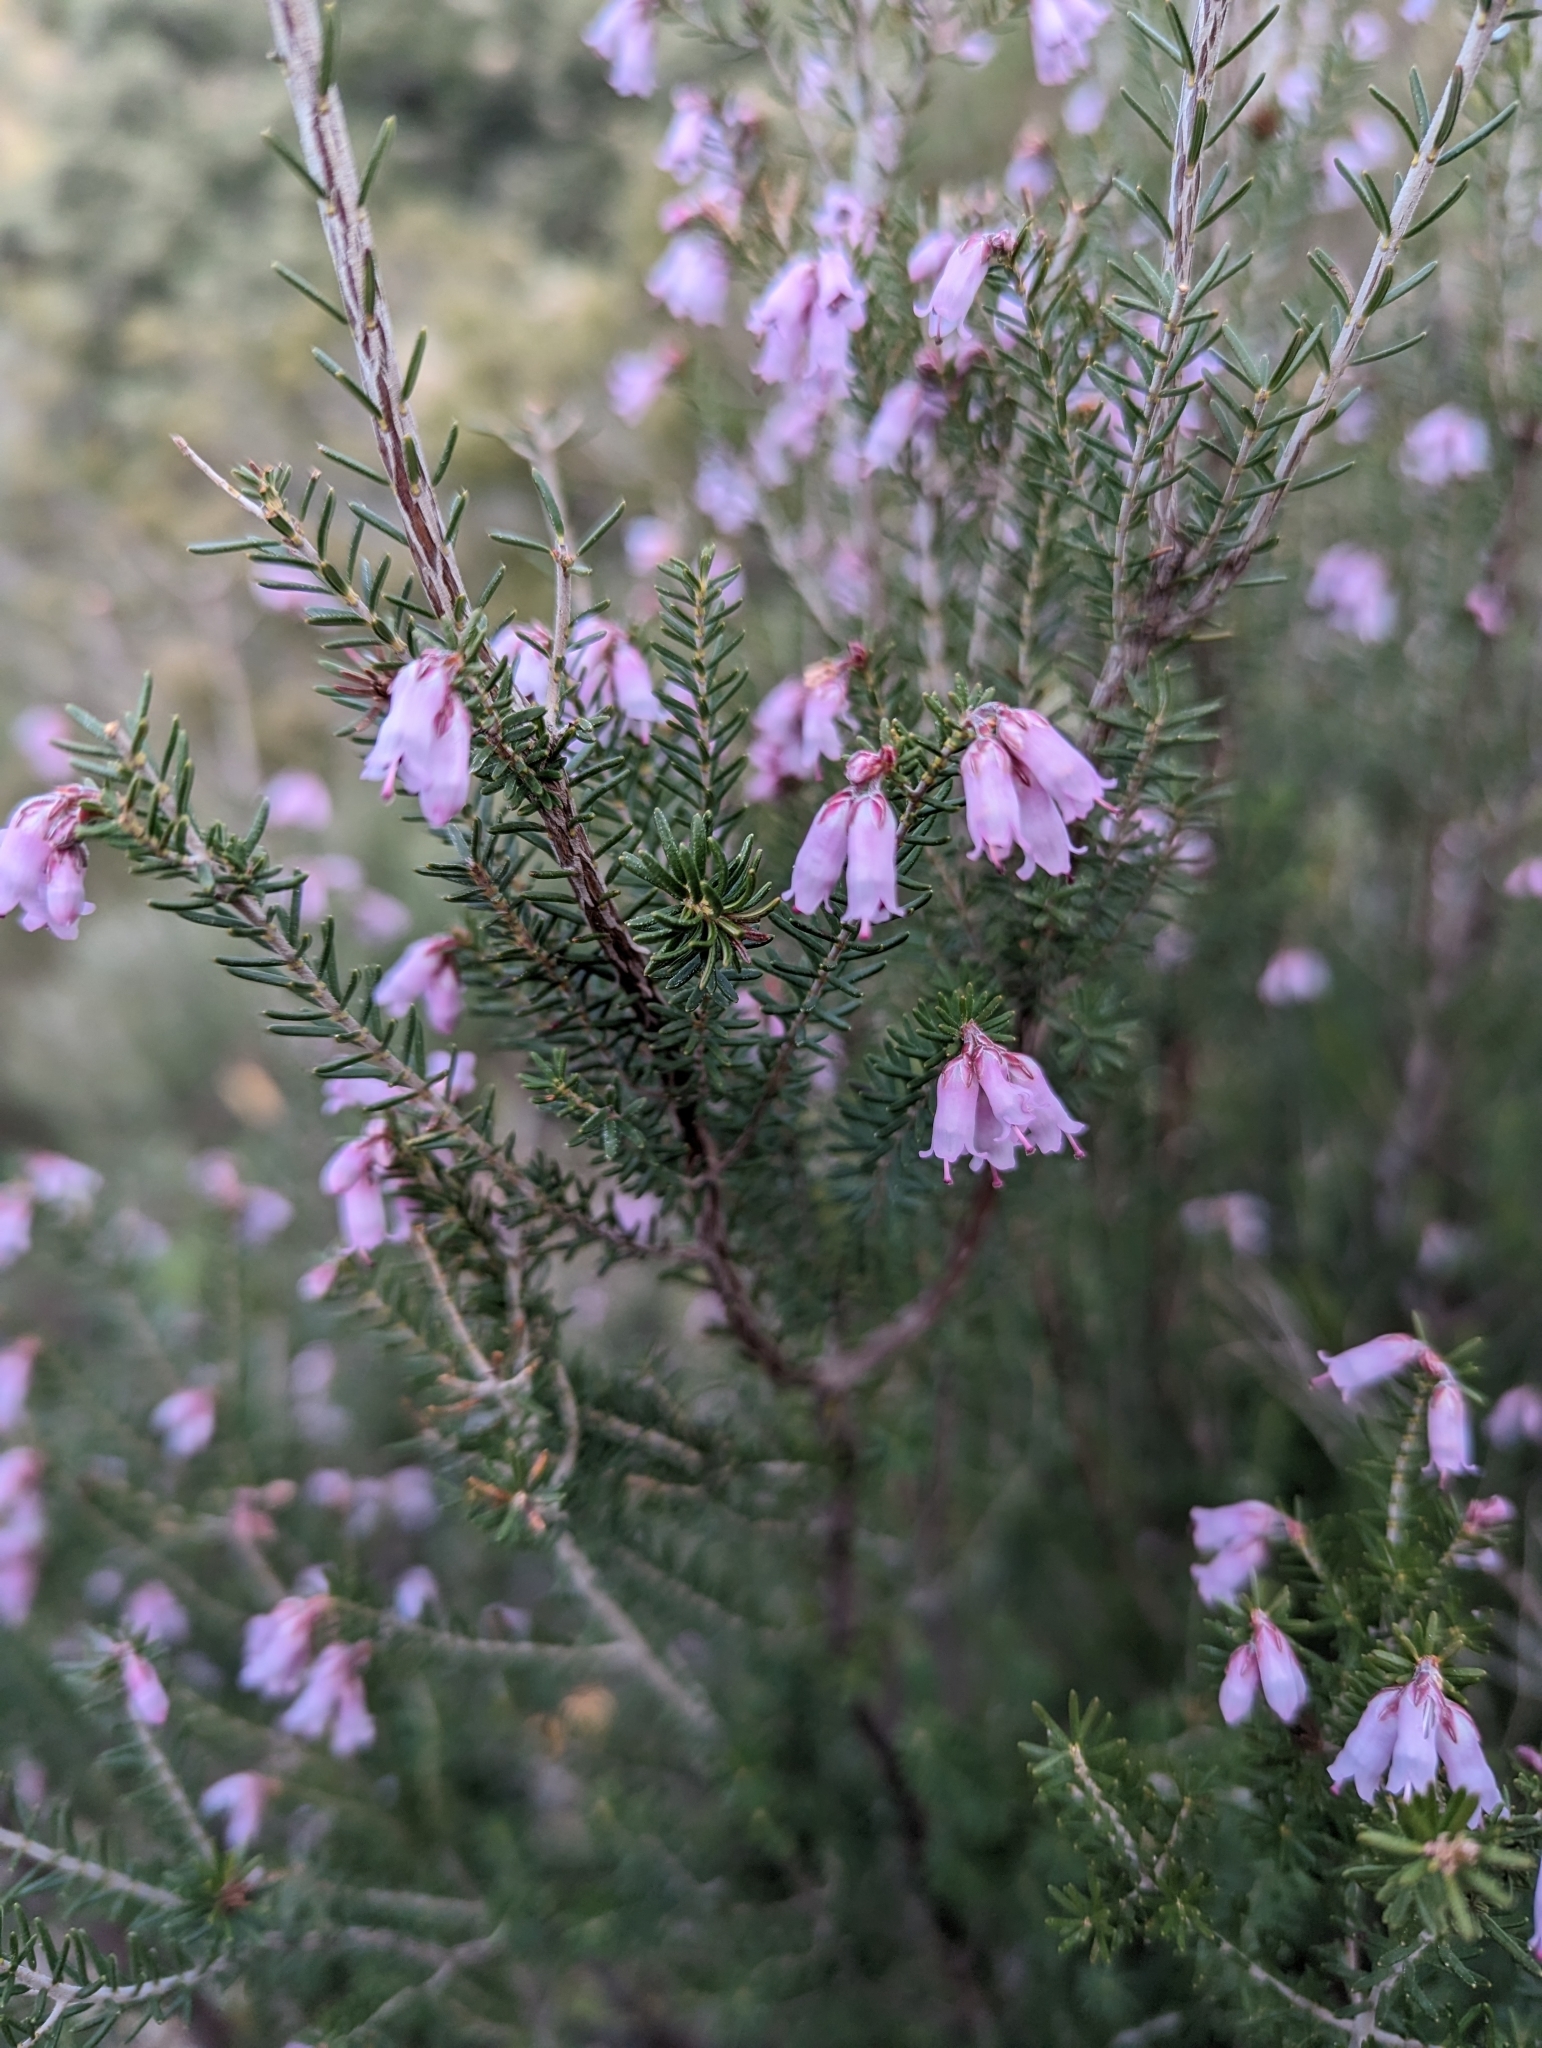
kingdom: Plantae
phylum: Tracheophyta
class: Magnoliopsida
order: Ericales
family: Ericaceae
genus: Erica
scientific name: Erica australis
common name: Spanish heath
